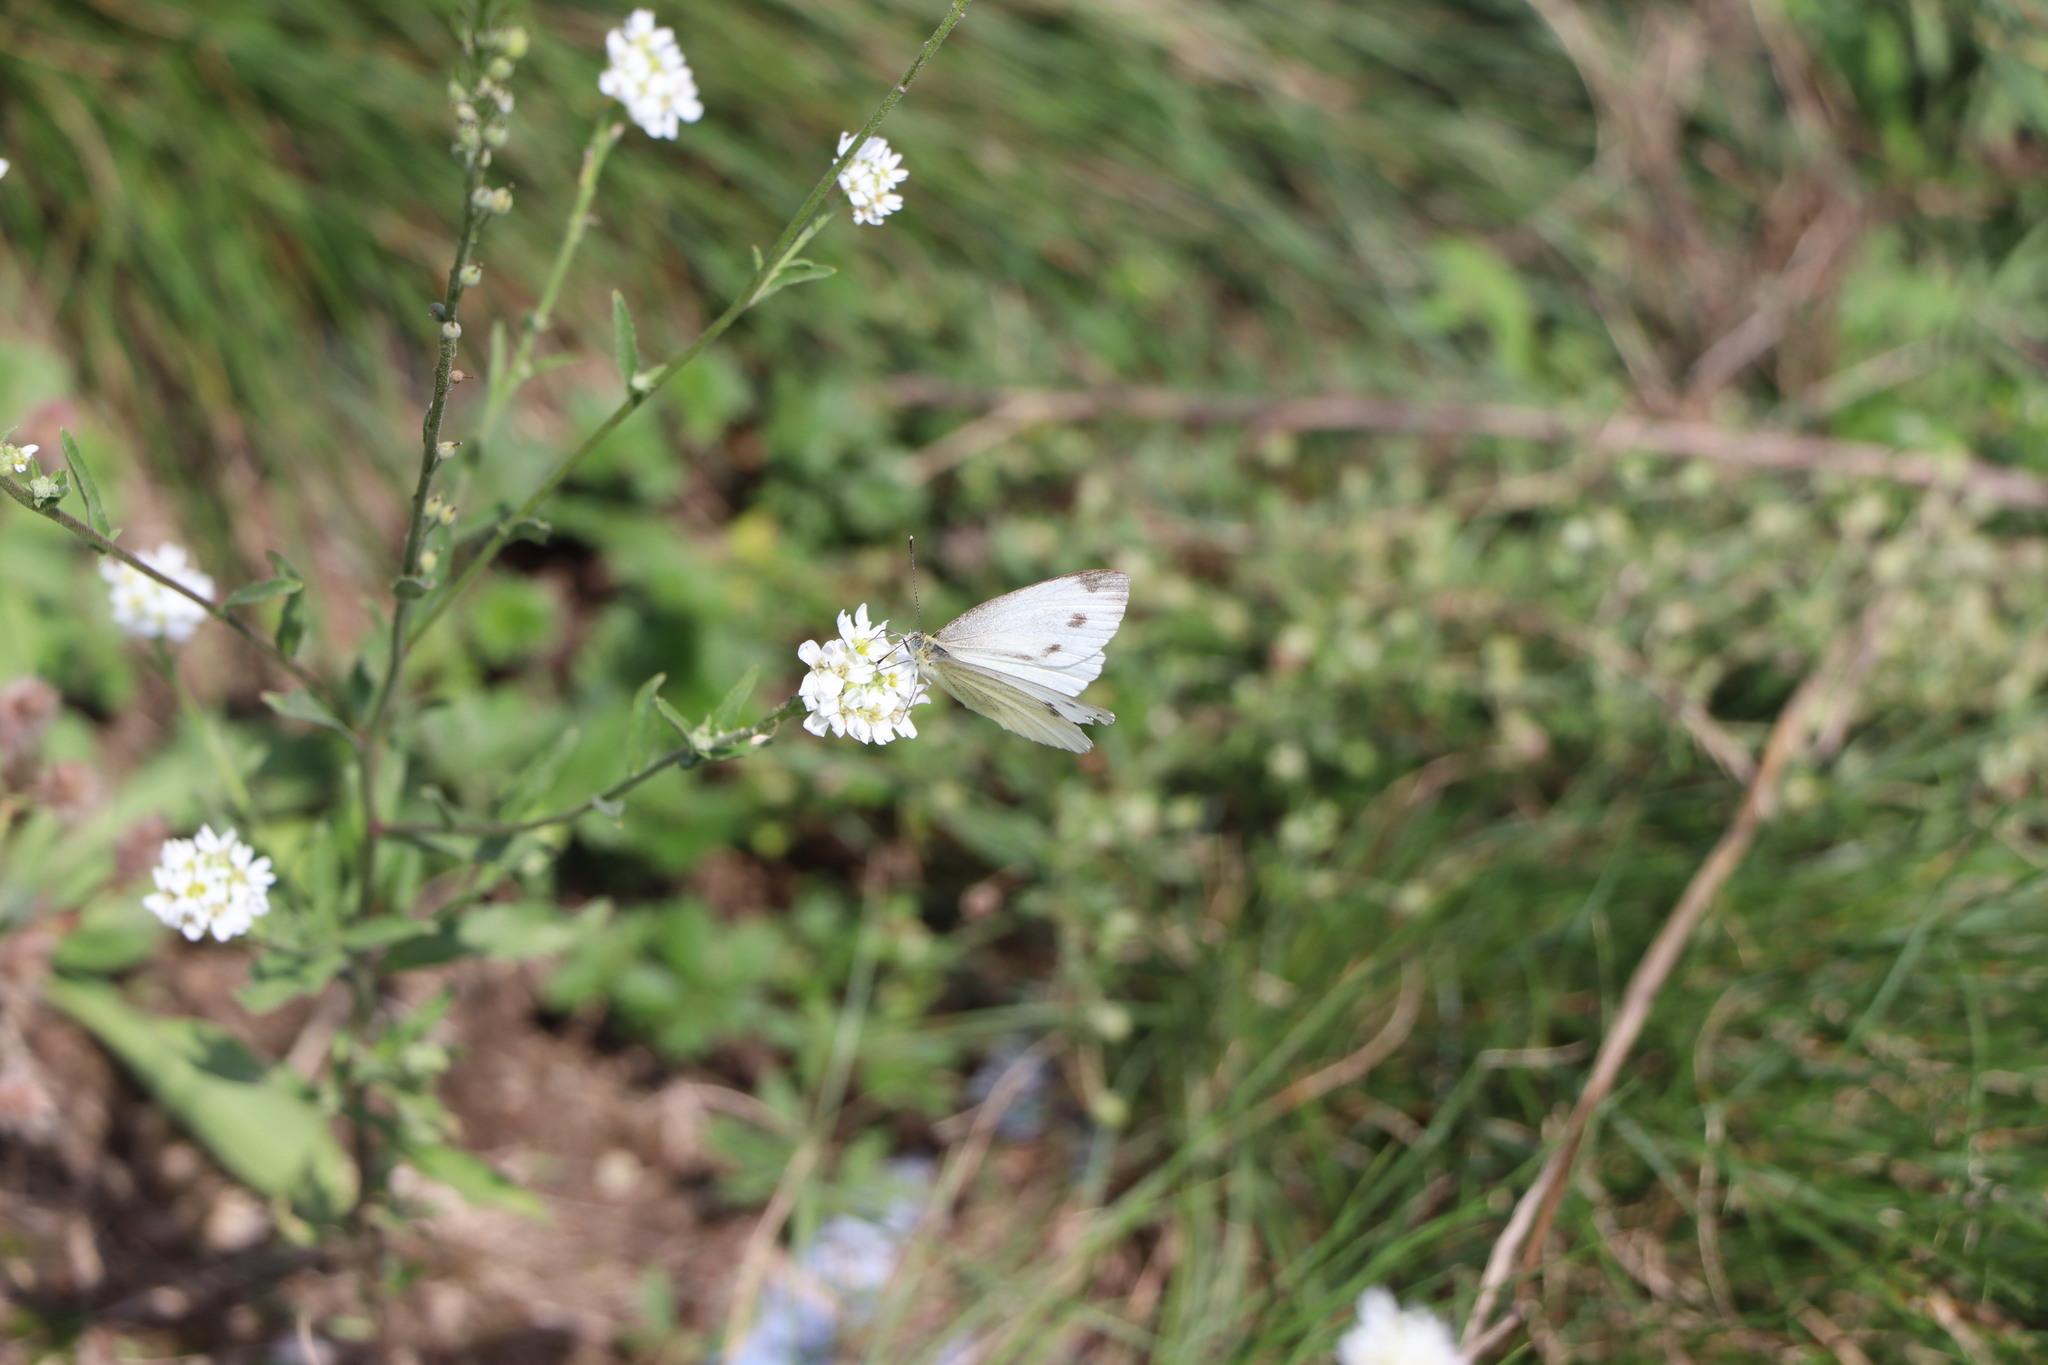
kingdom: Animalia
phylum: Arthropoda
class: Insecta
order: Lepidoptera
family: Pieridae
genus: Pieris
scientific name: Pieris napi
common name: Green-veined white
